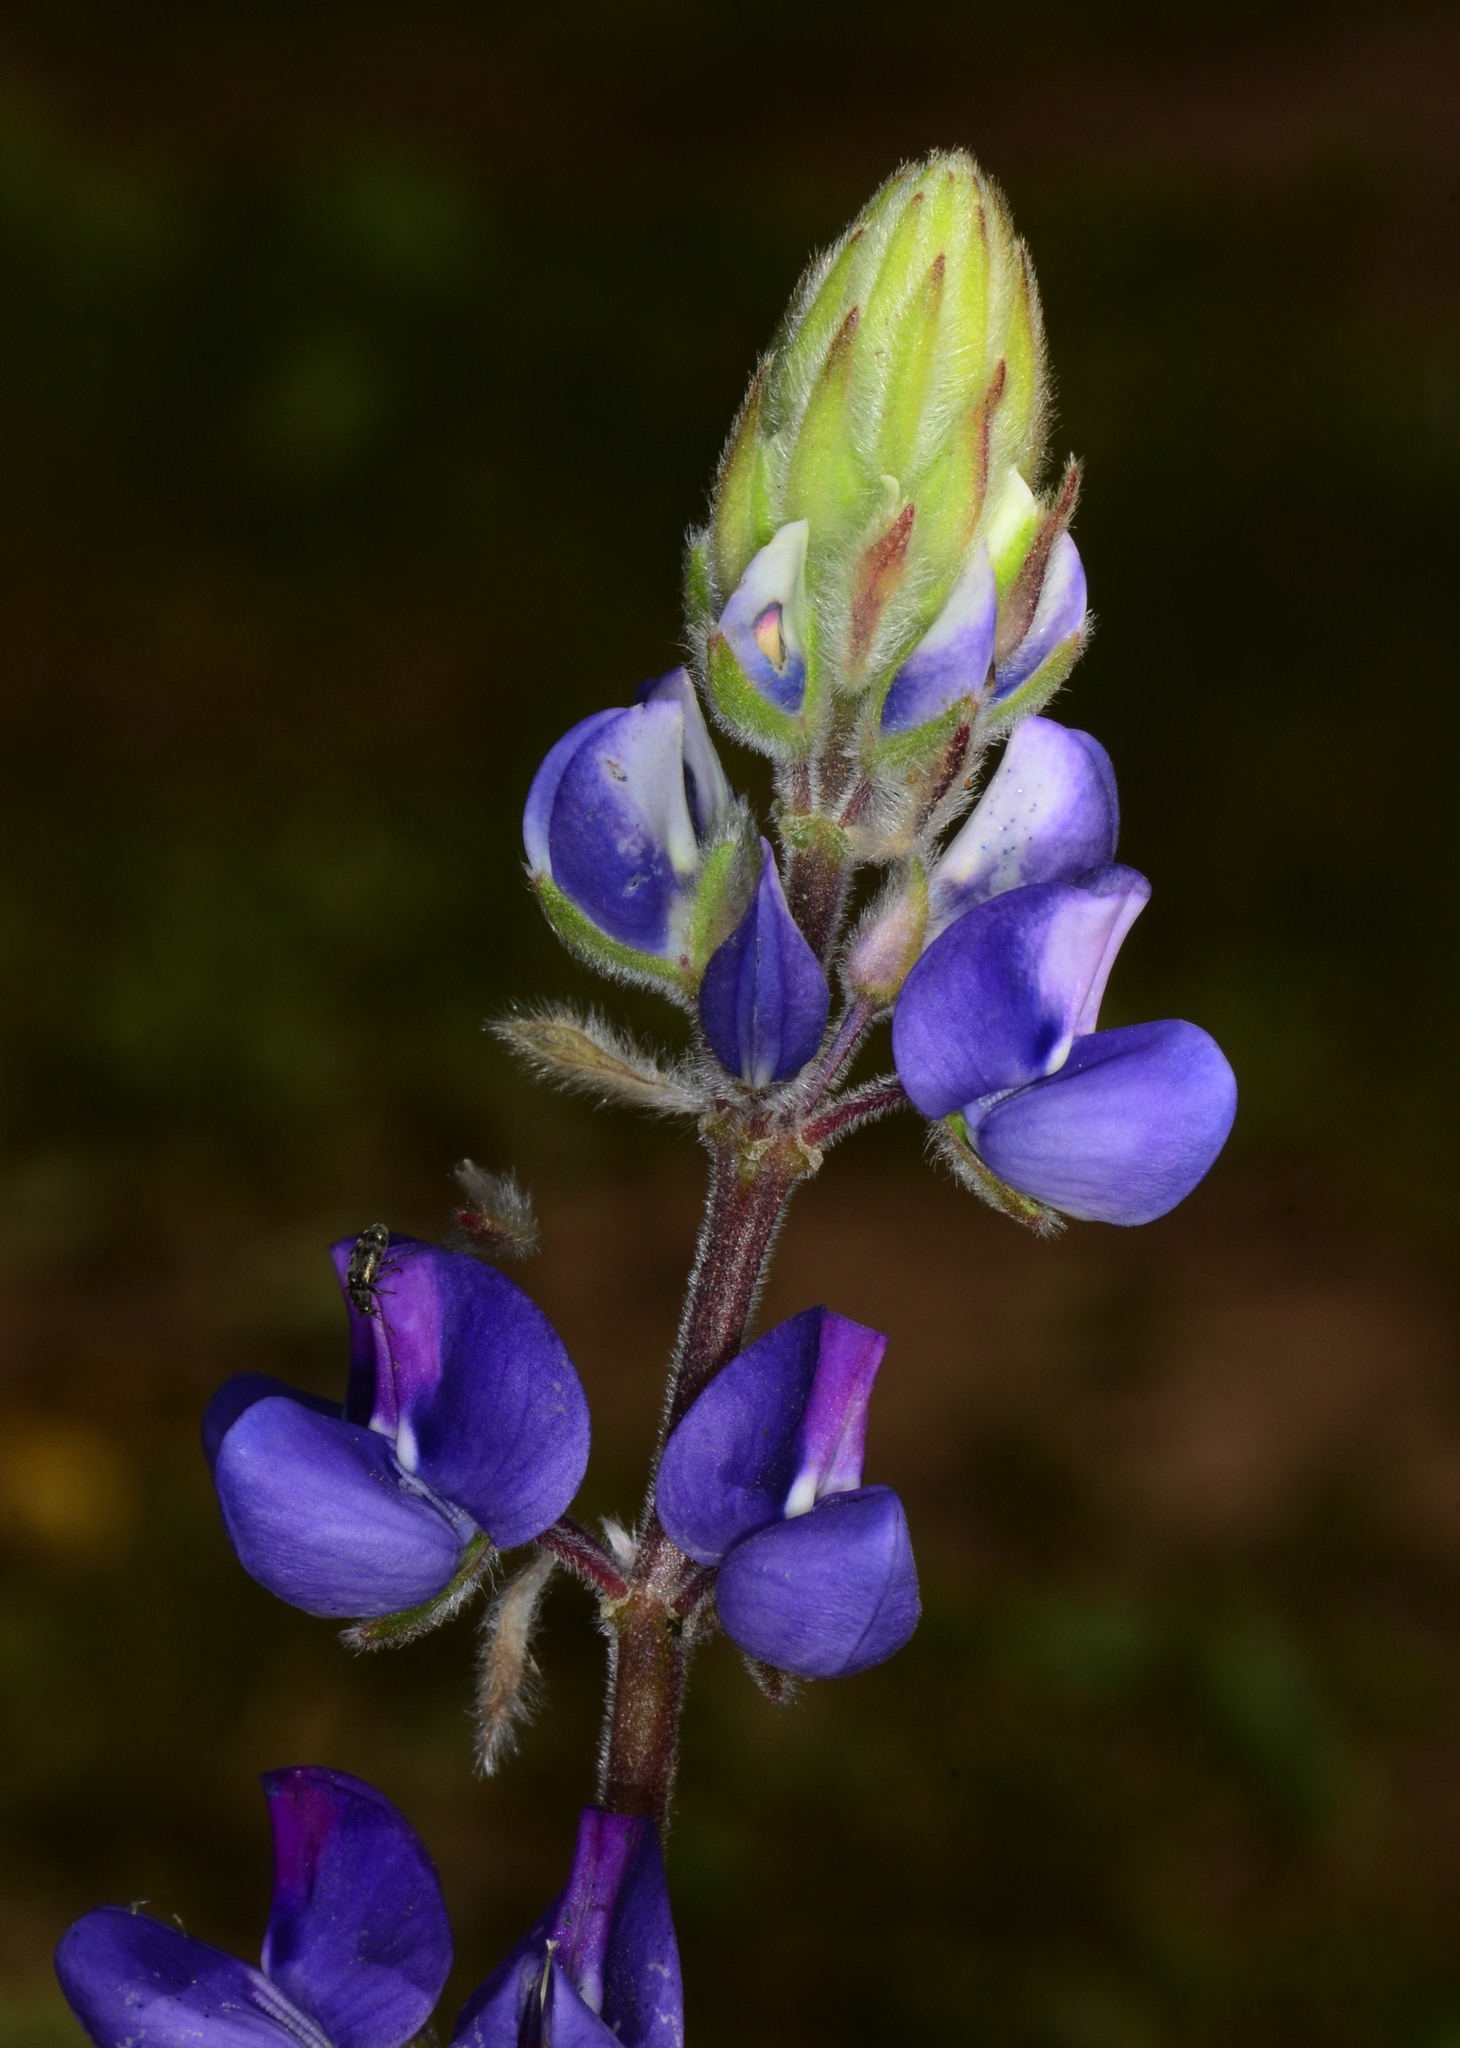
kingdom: Plantae
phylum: Tracheophyta
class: Magnoliopsida
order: Fabales
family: Fabaceae
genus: Lupinus
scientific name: Lupinus affinis
